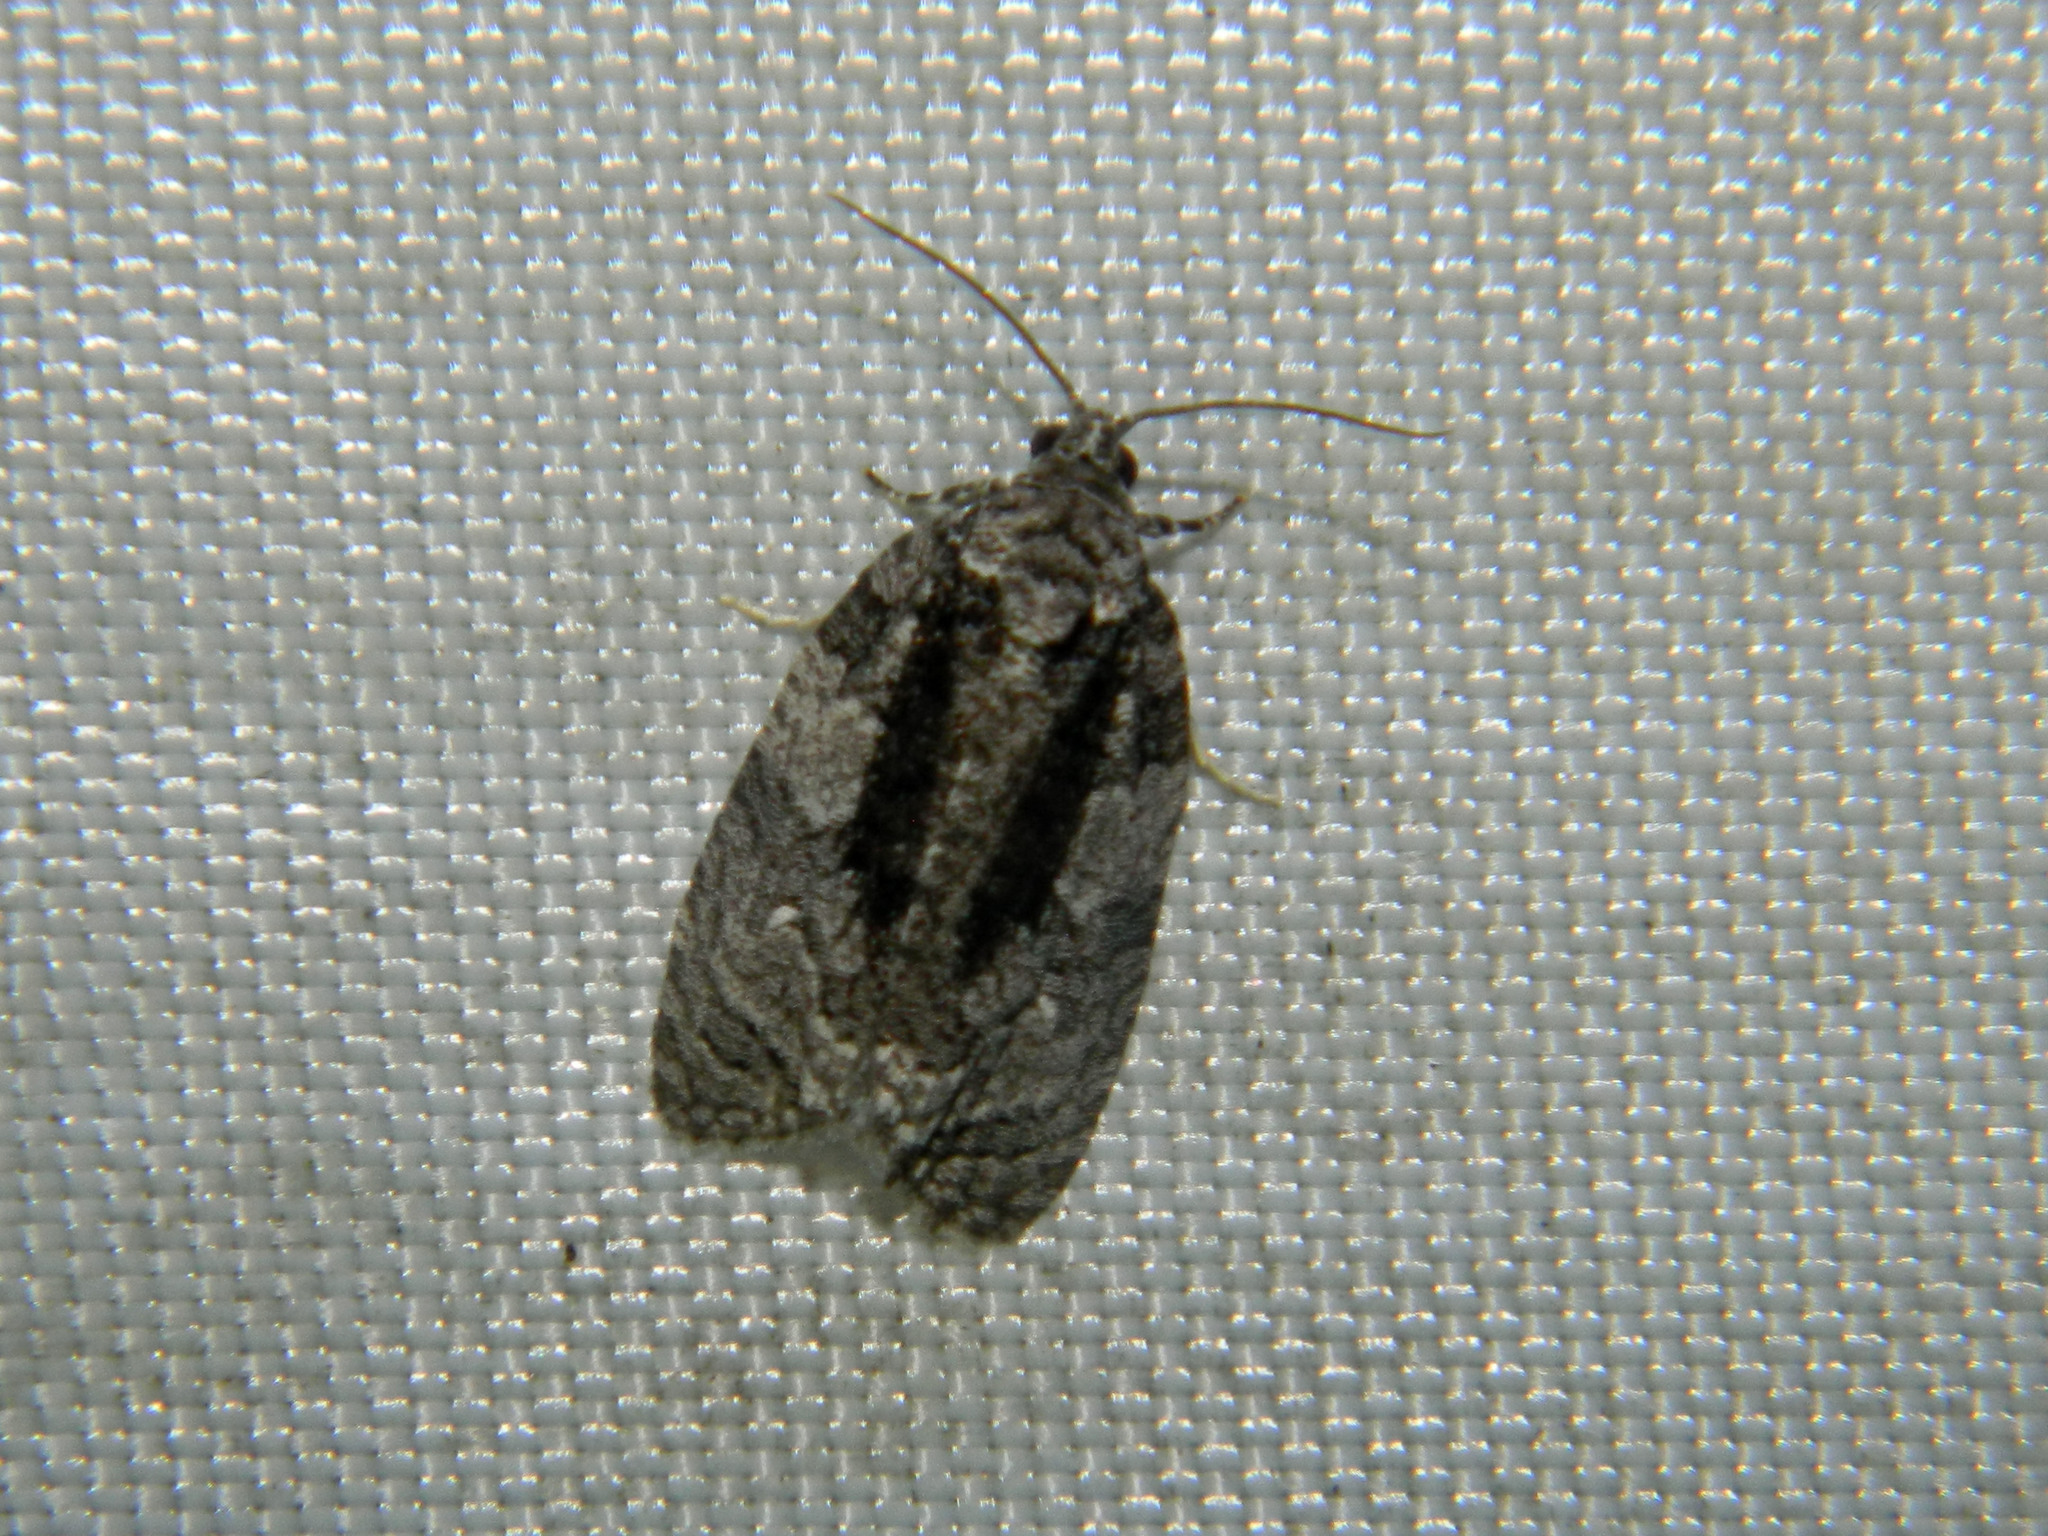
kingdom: Animalia
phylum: Arthropoda
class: Insecta
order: Lepidoptera
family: Tortricidae
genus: Apotomis
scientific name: Apotomis removana
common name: Green aspen leafroller
